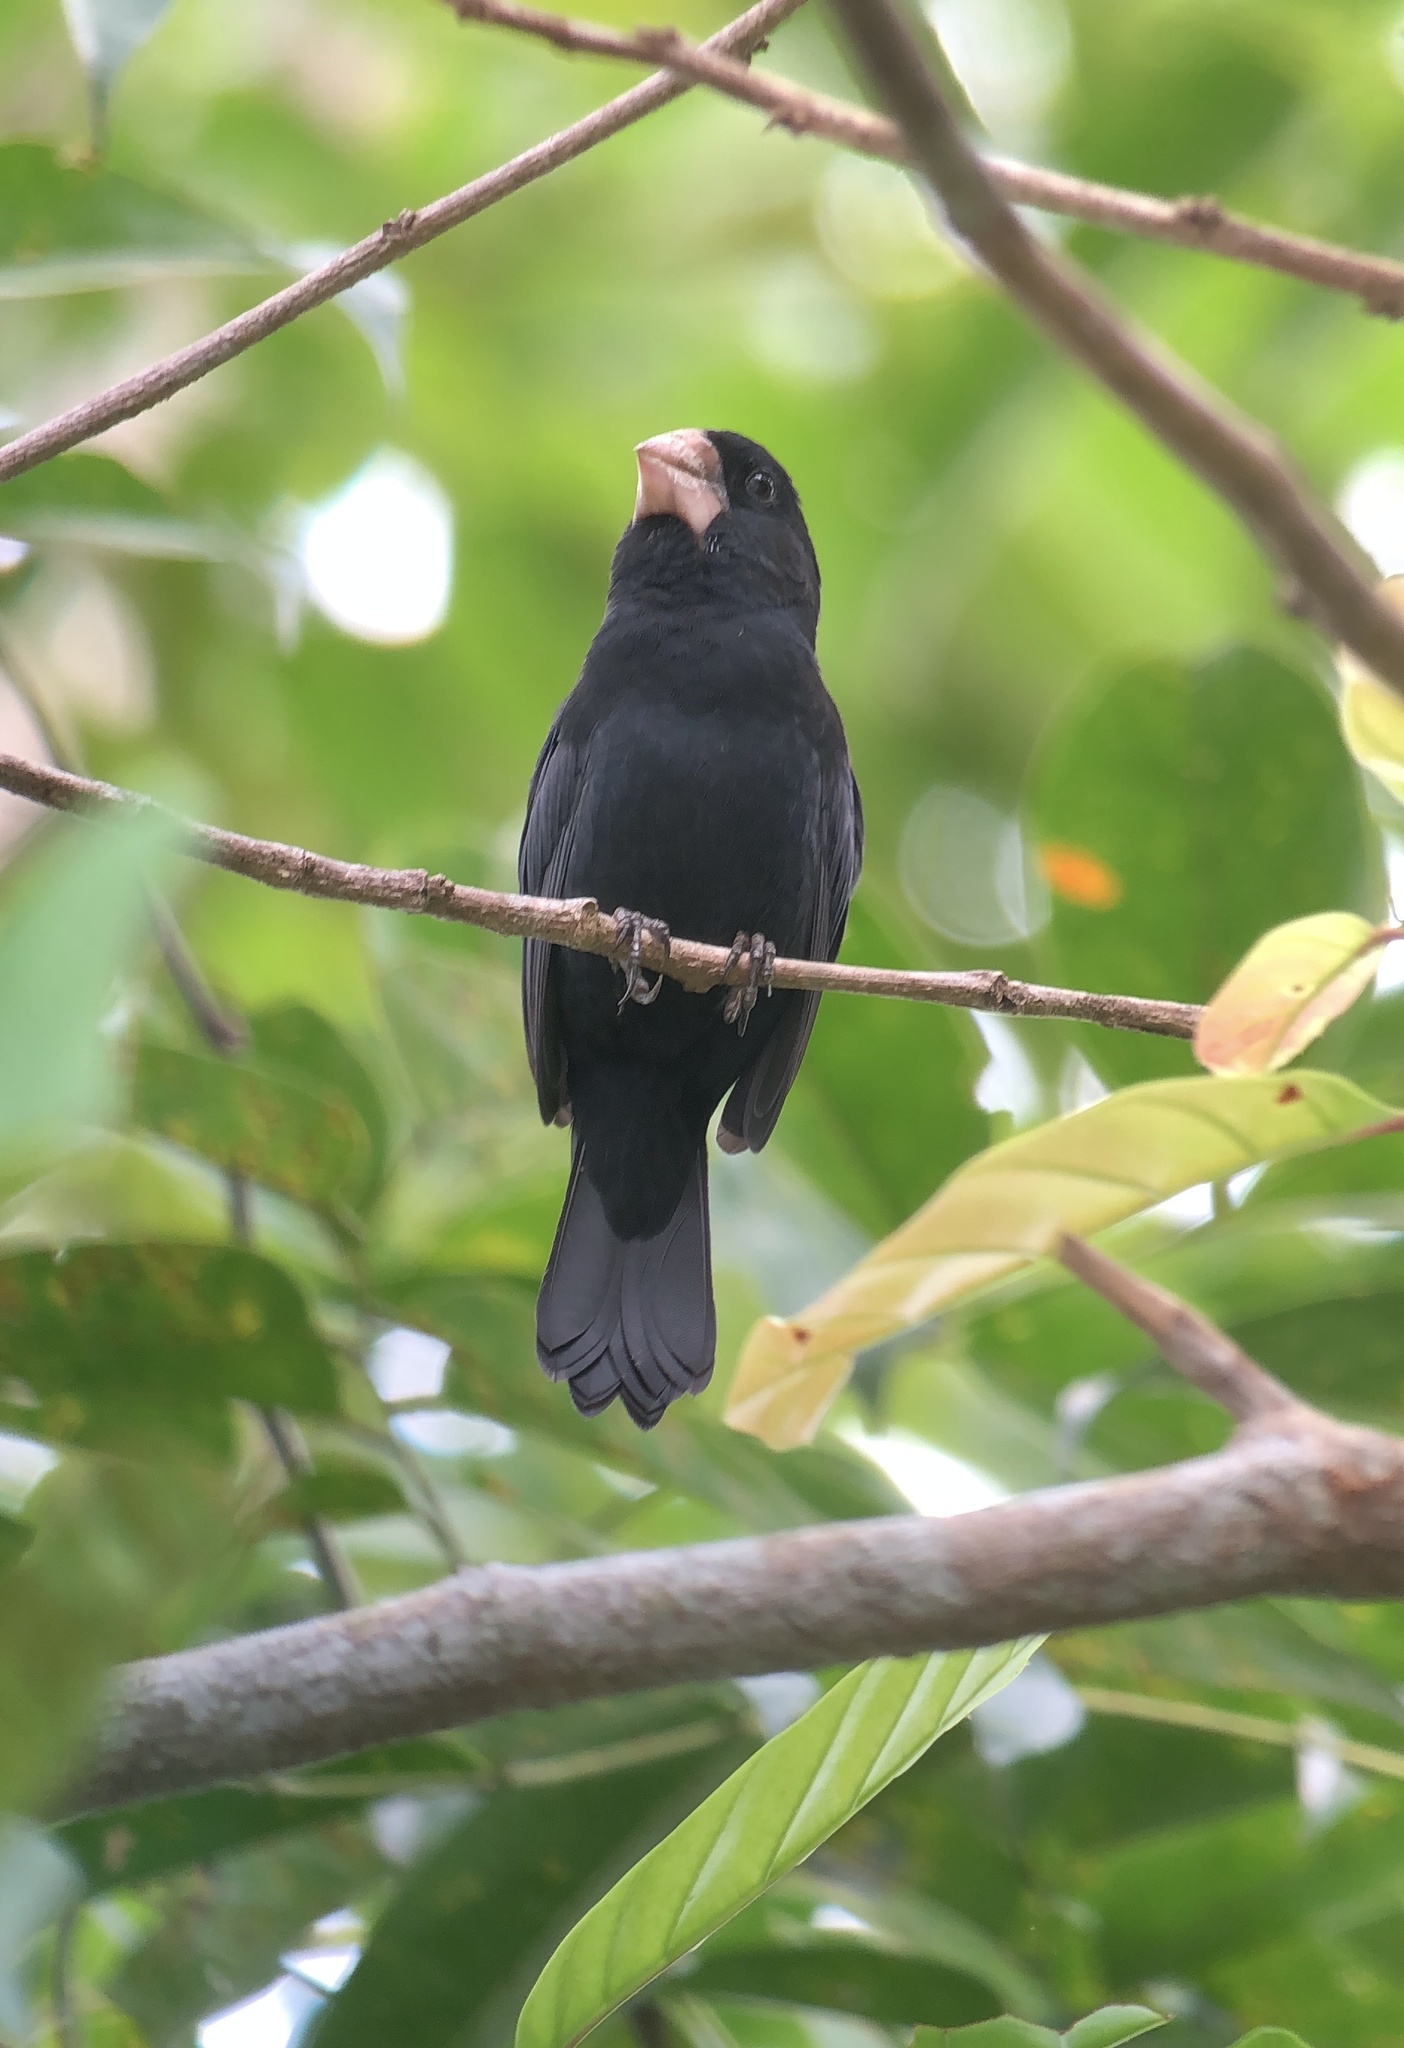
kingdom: Animalia
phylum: Chordata
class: Aves
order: Passeriformes
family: Thraupidae
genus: Sporophila
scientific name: Sporophila nuttingi
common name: Nicaraguan seed-finch
